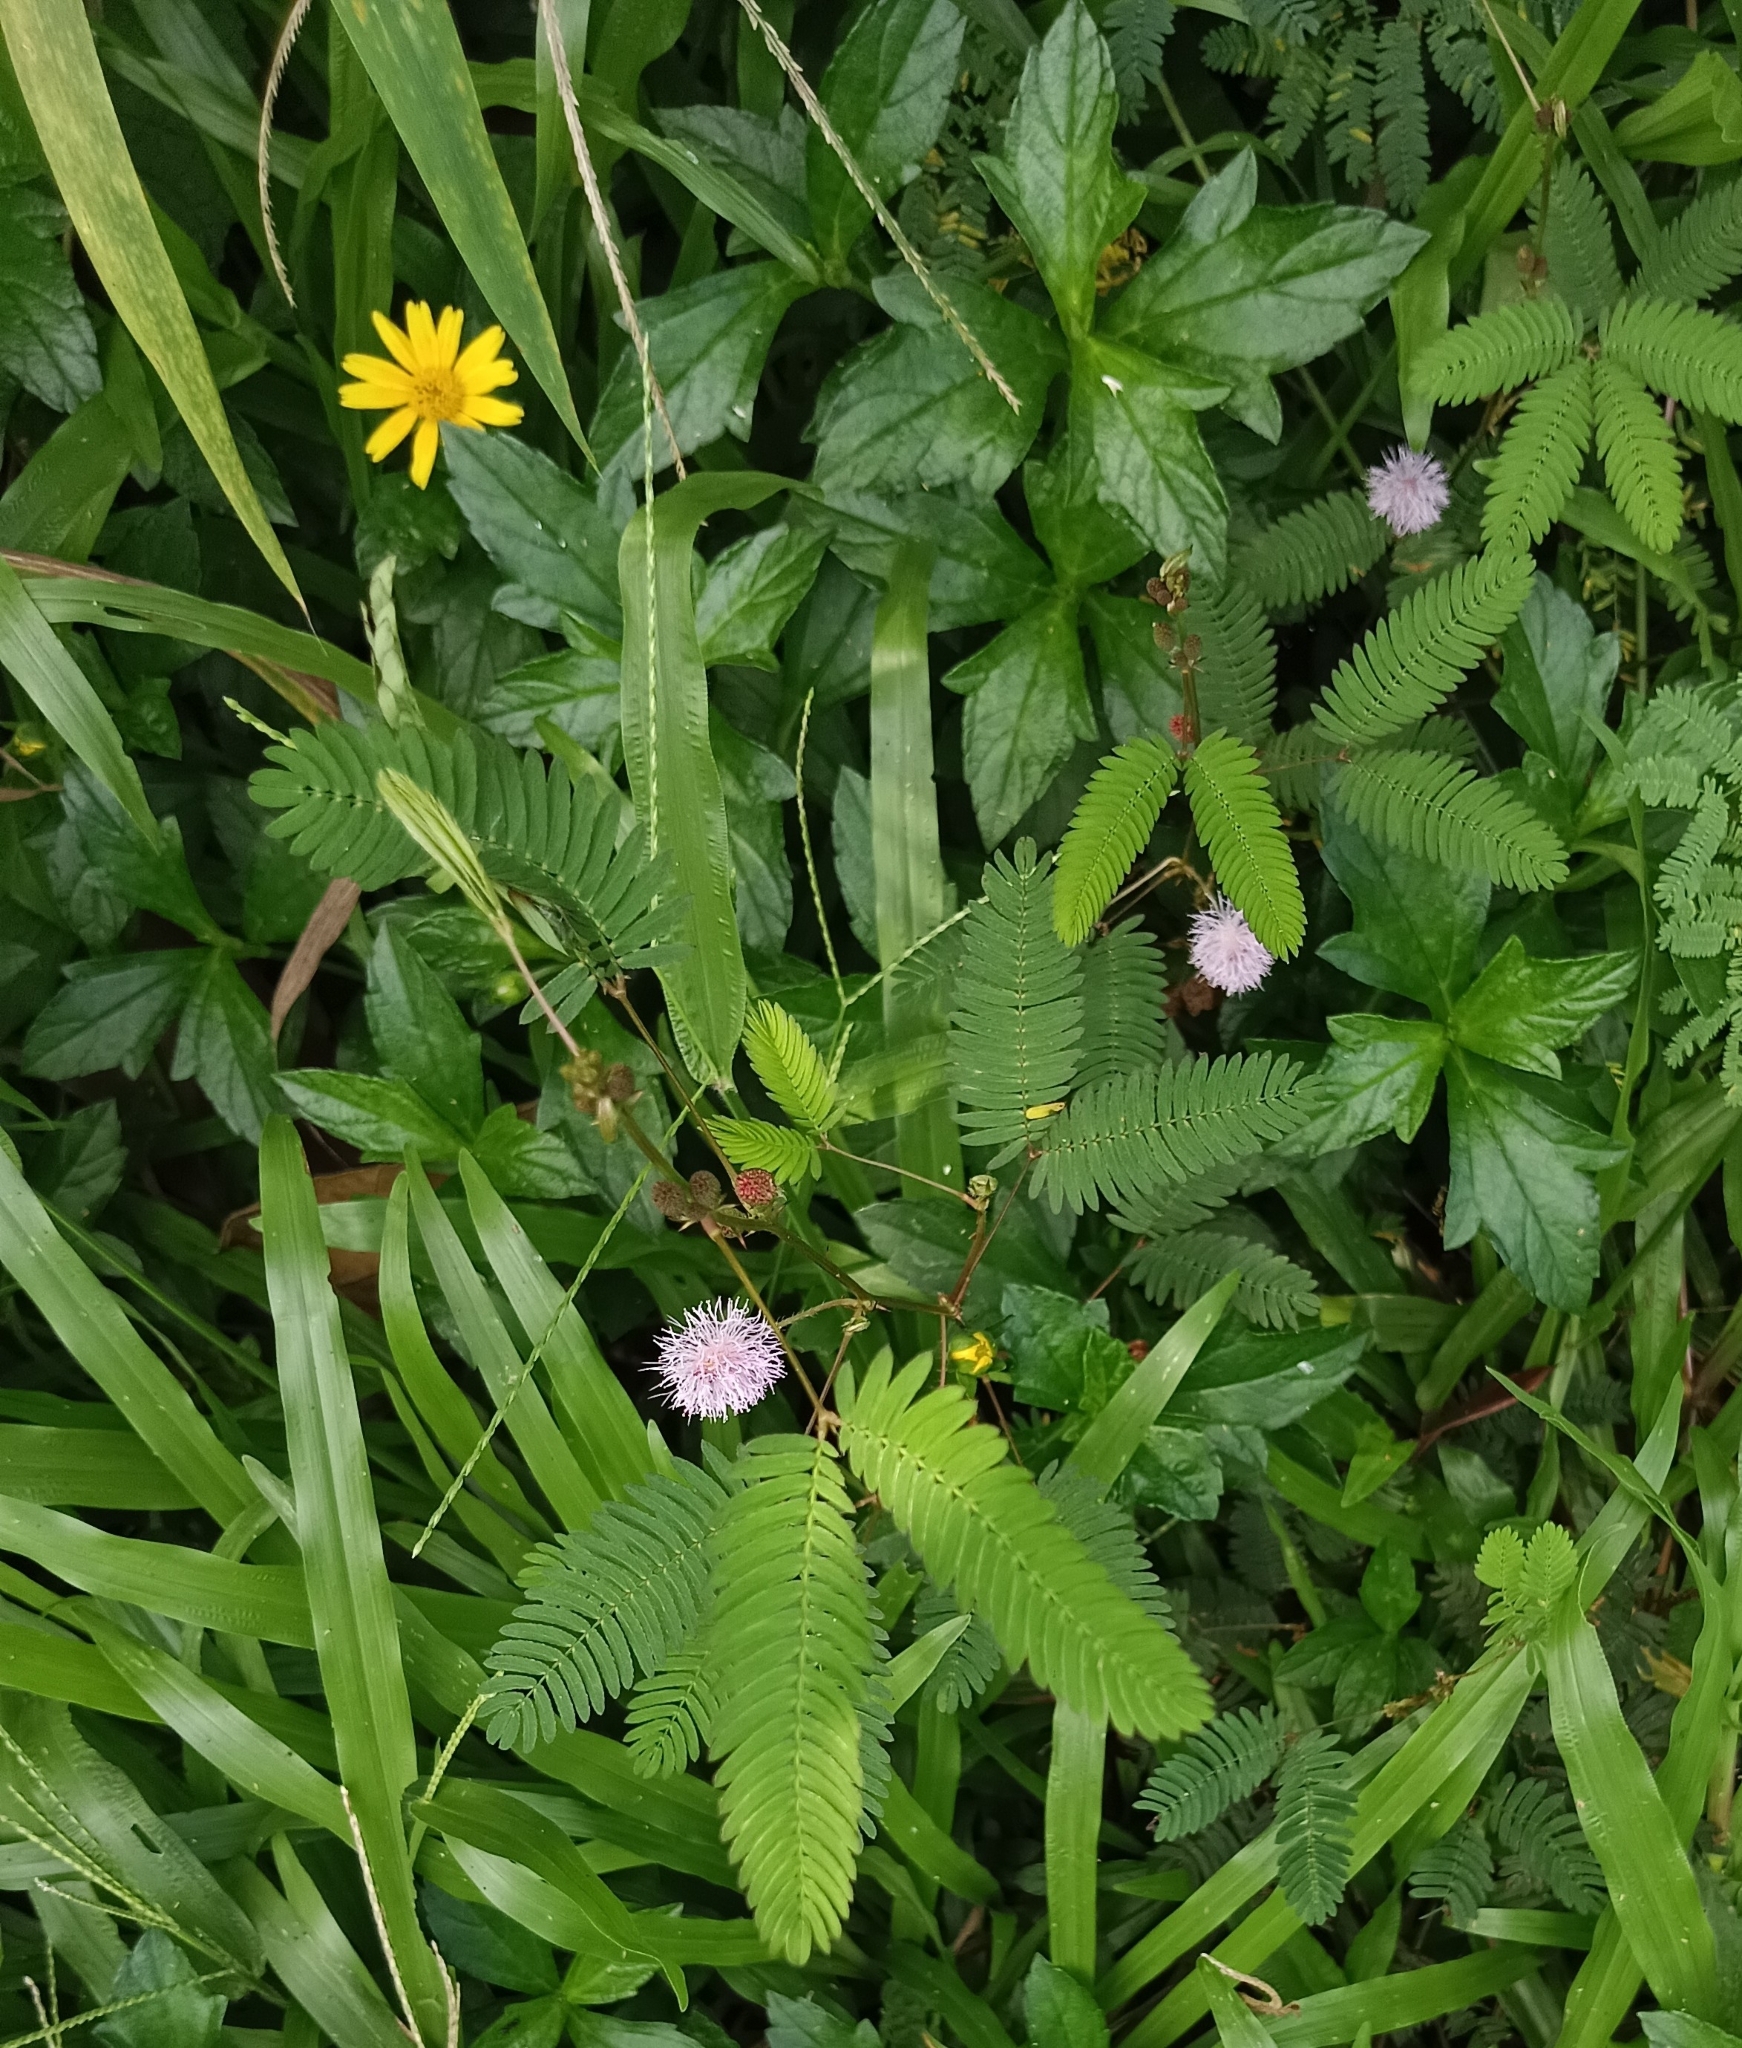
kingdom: Plantae
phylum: Tracheophyta
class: Magnoliopsida
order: Fabales
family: Fabaceae
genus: Mimosa
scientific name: Mimosa pudica
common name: Sensitive plant
